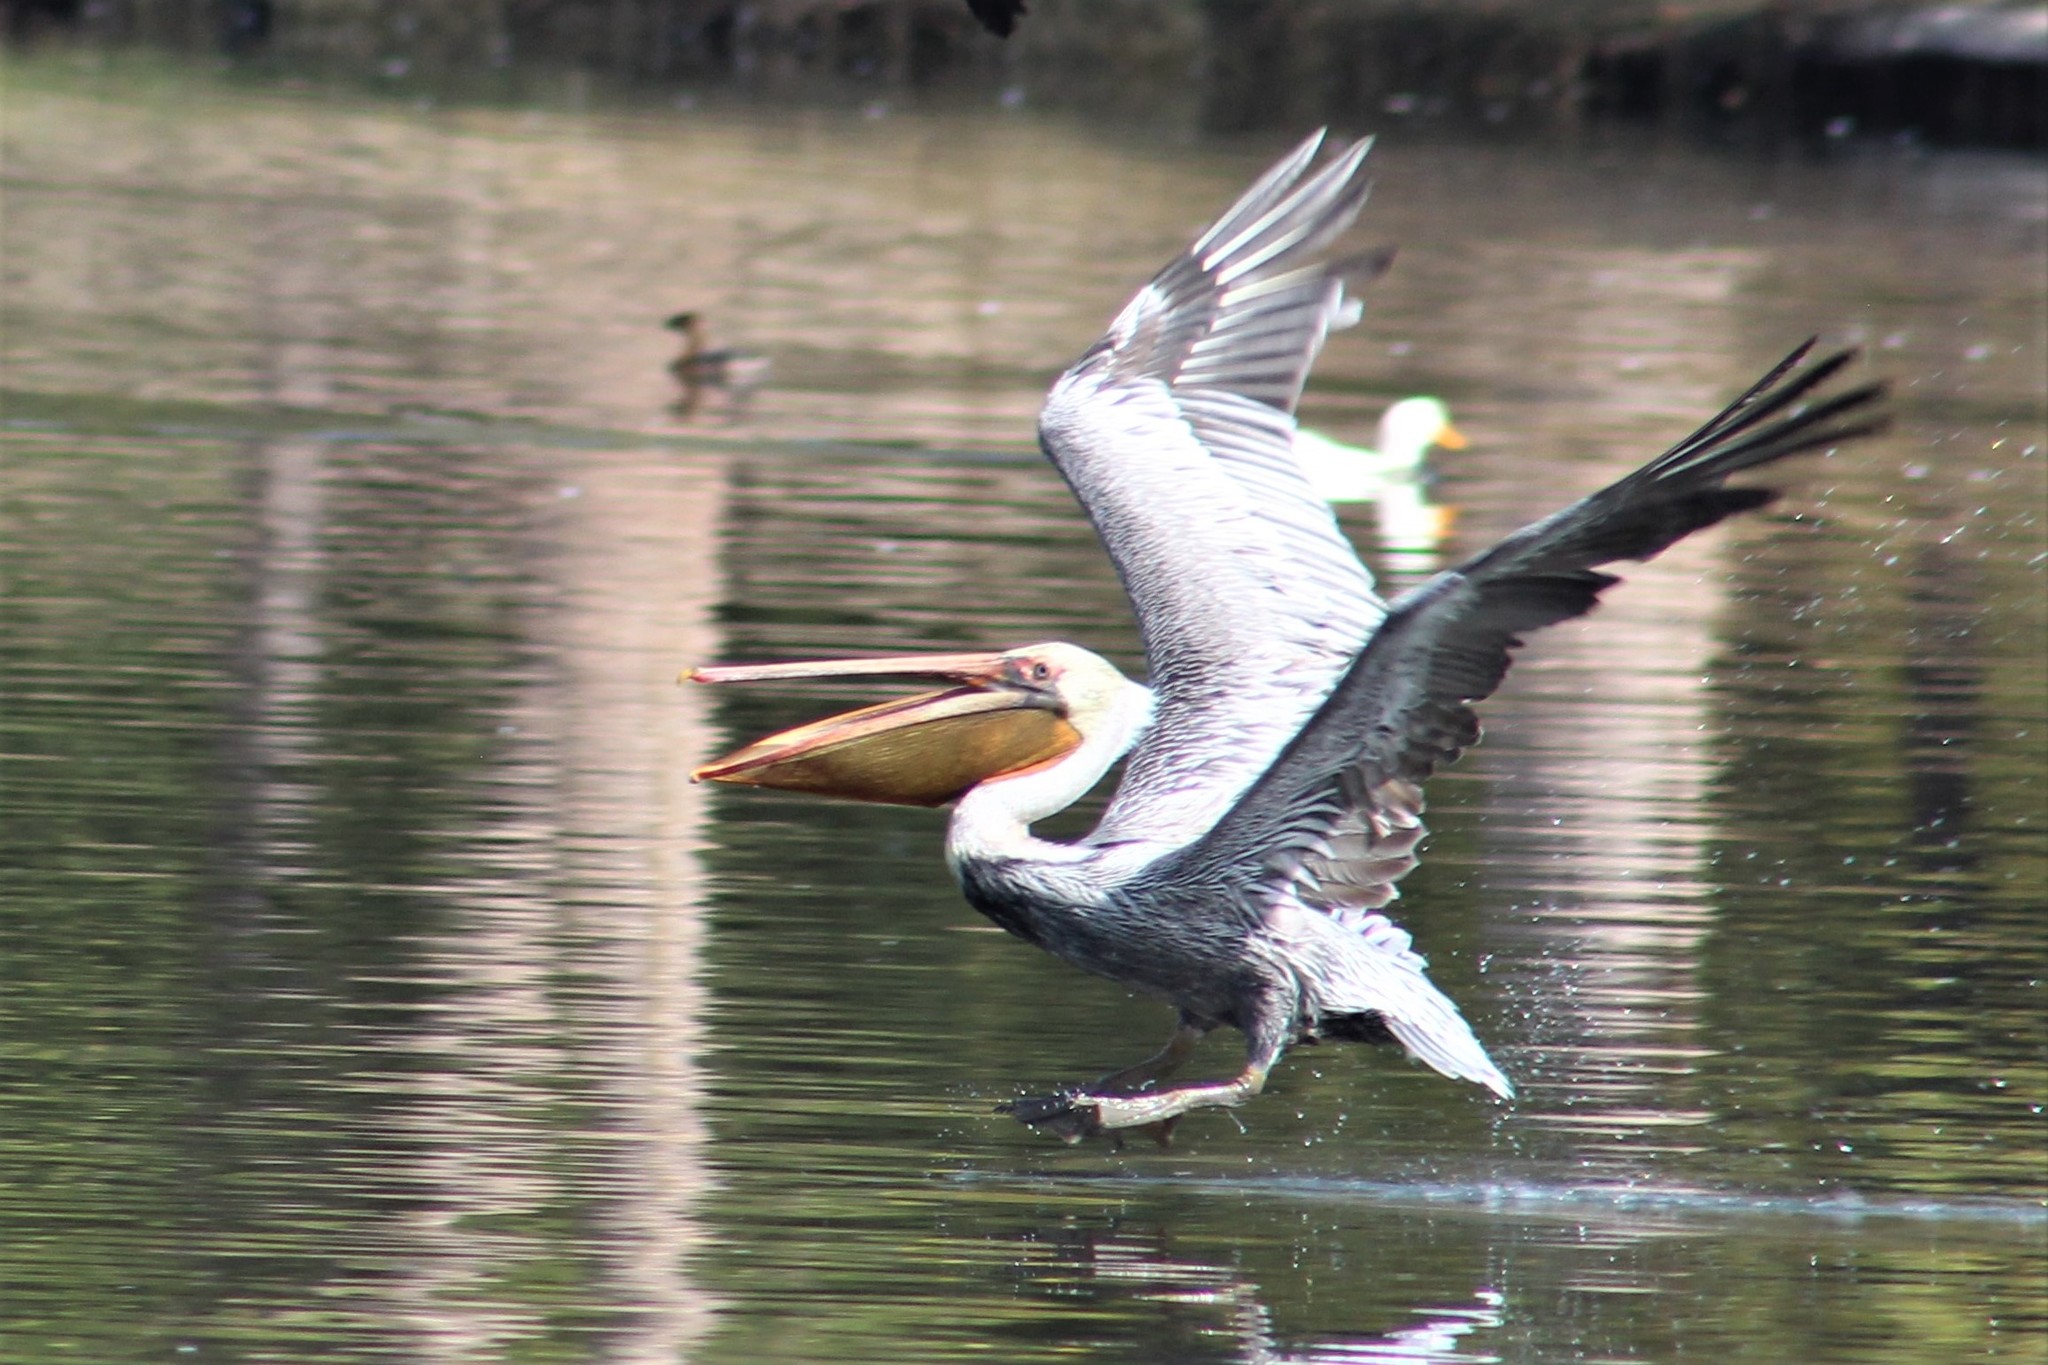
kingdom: Animalia
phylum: Chordata
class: Aves
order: Pelecaniformes
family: Pelecanidae
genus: Pelecanus
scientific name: Pelecanus occidentalis
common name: Brown pelican
